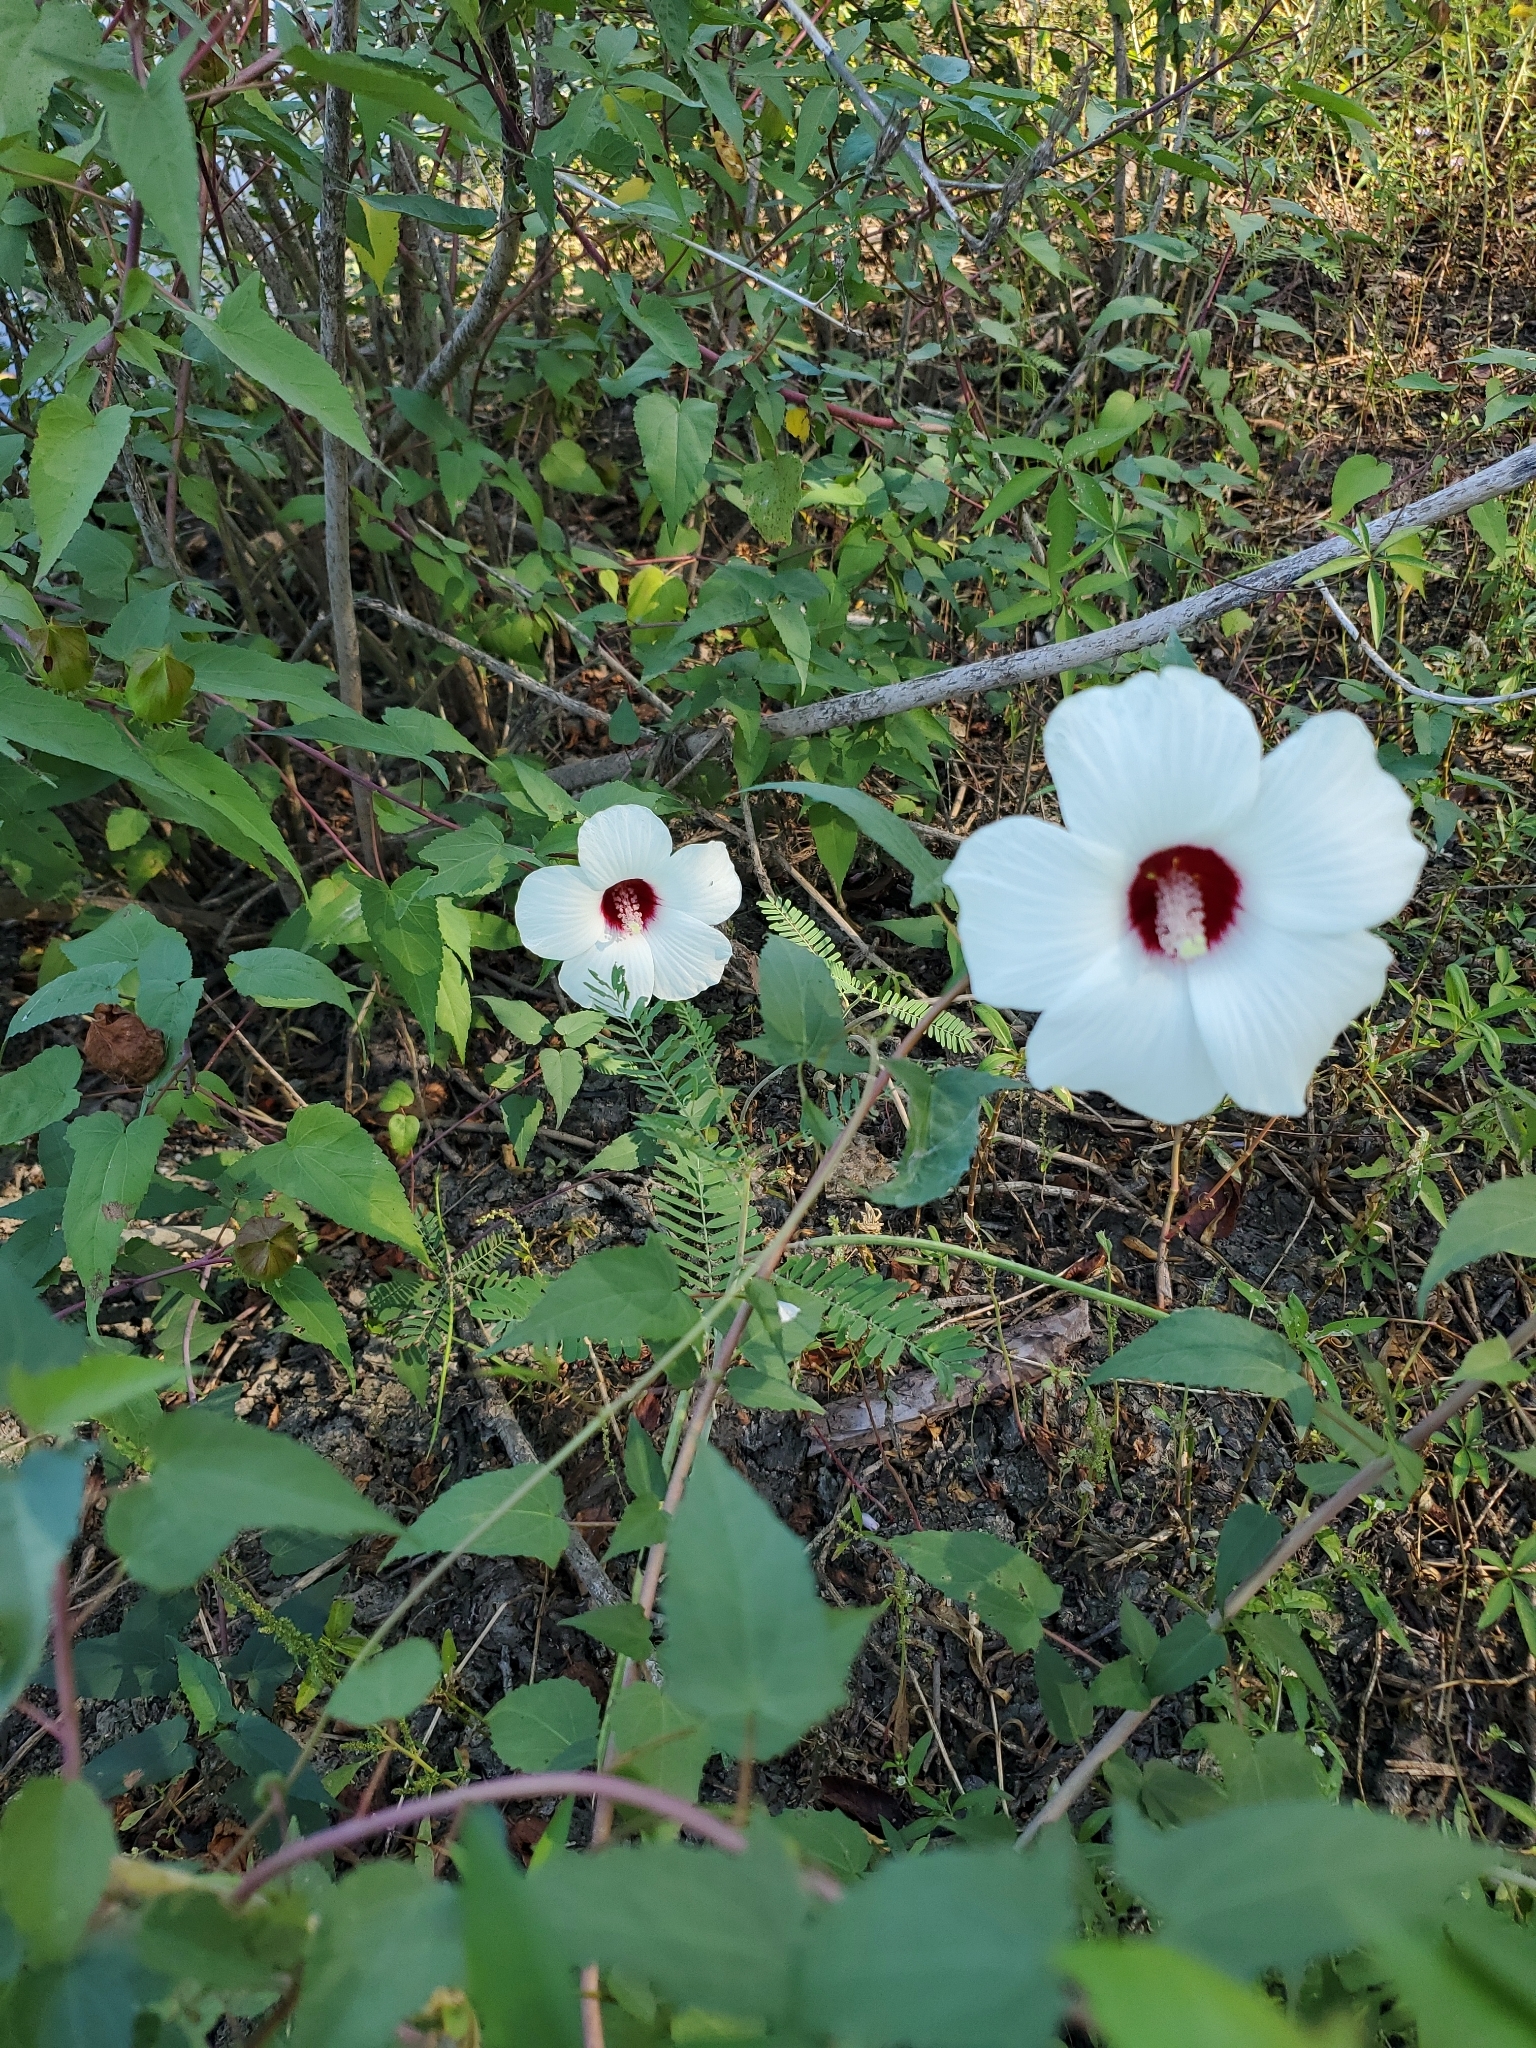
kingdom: Plantae
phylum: Tracheophyta
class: Magnoliopsida
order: Malvales
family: Malvaceae
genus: Hibiscus
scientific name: Hibiscus laevis
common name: Scarlet rose-mallow
